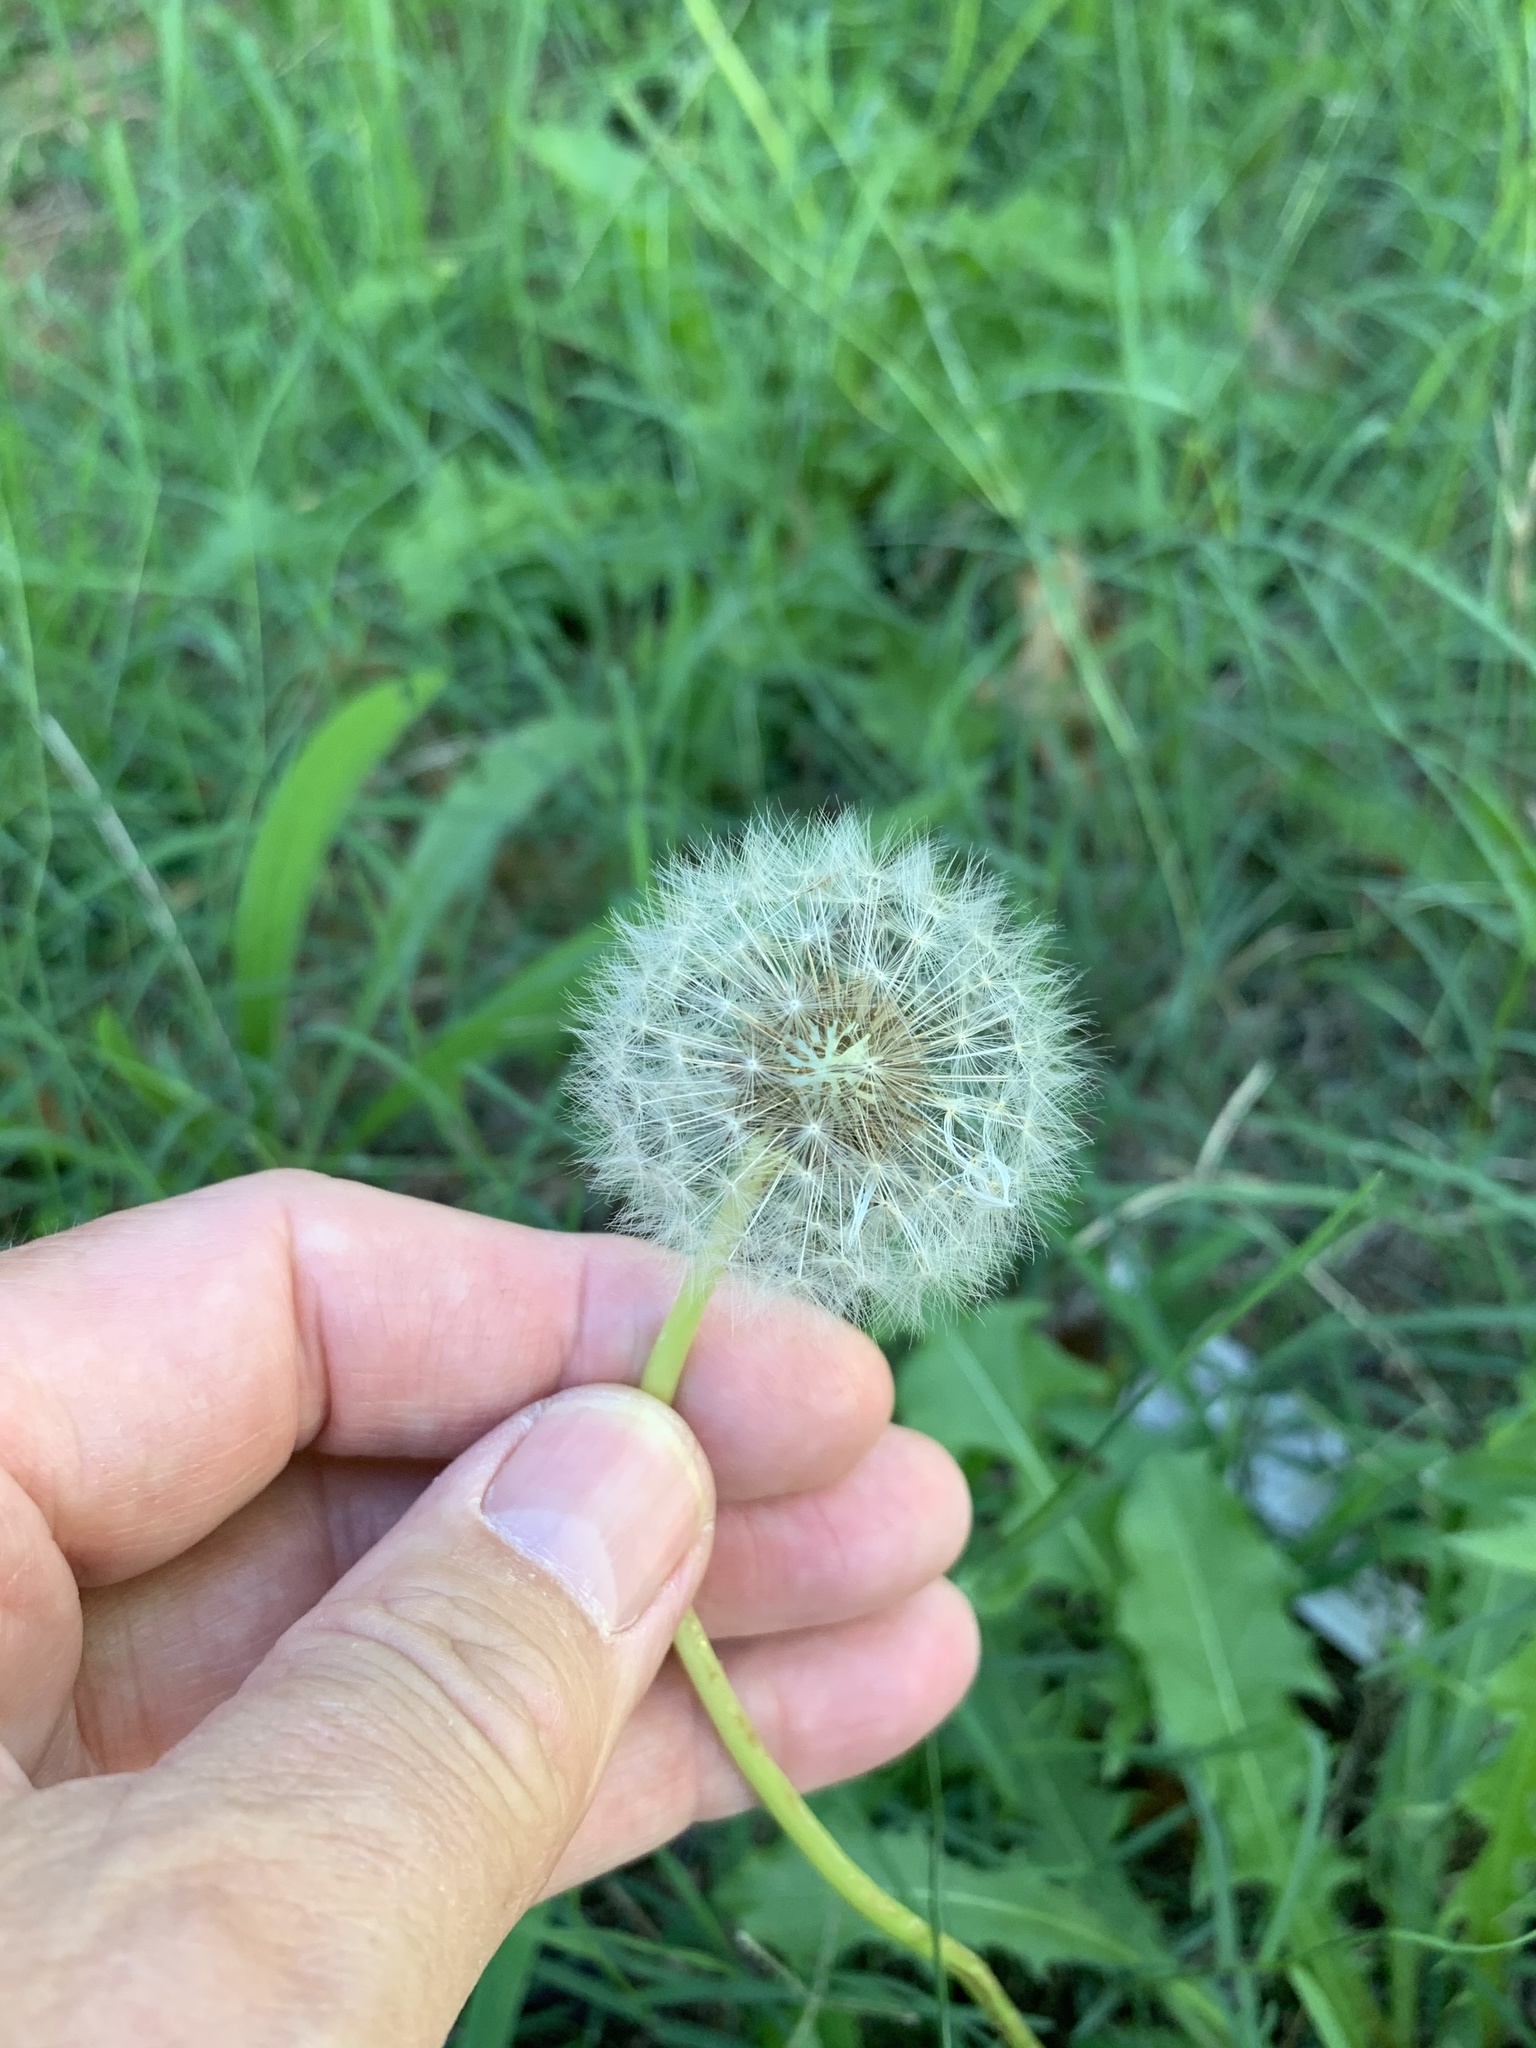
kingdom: Plantae
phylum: Tracheophyta
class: Magnoliopsida
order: Asterales
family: Asteraceae
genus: Taraxacum
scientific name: Taraxacum officinale
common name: Common dandelion
